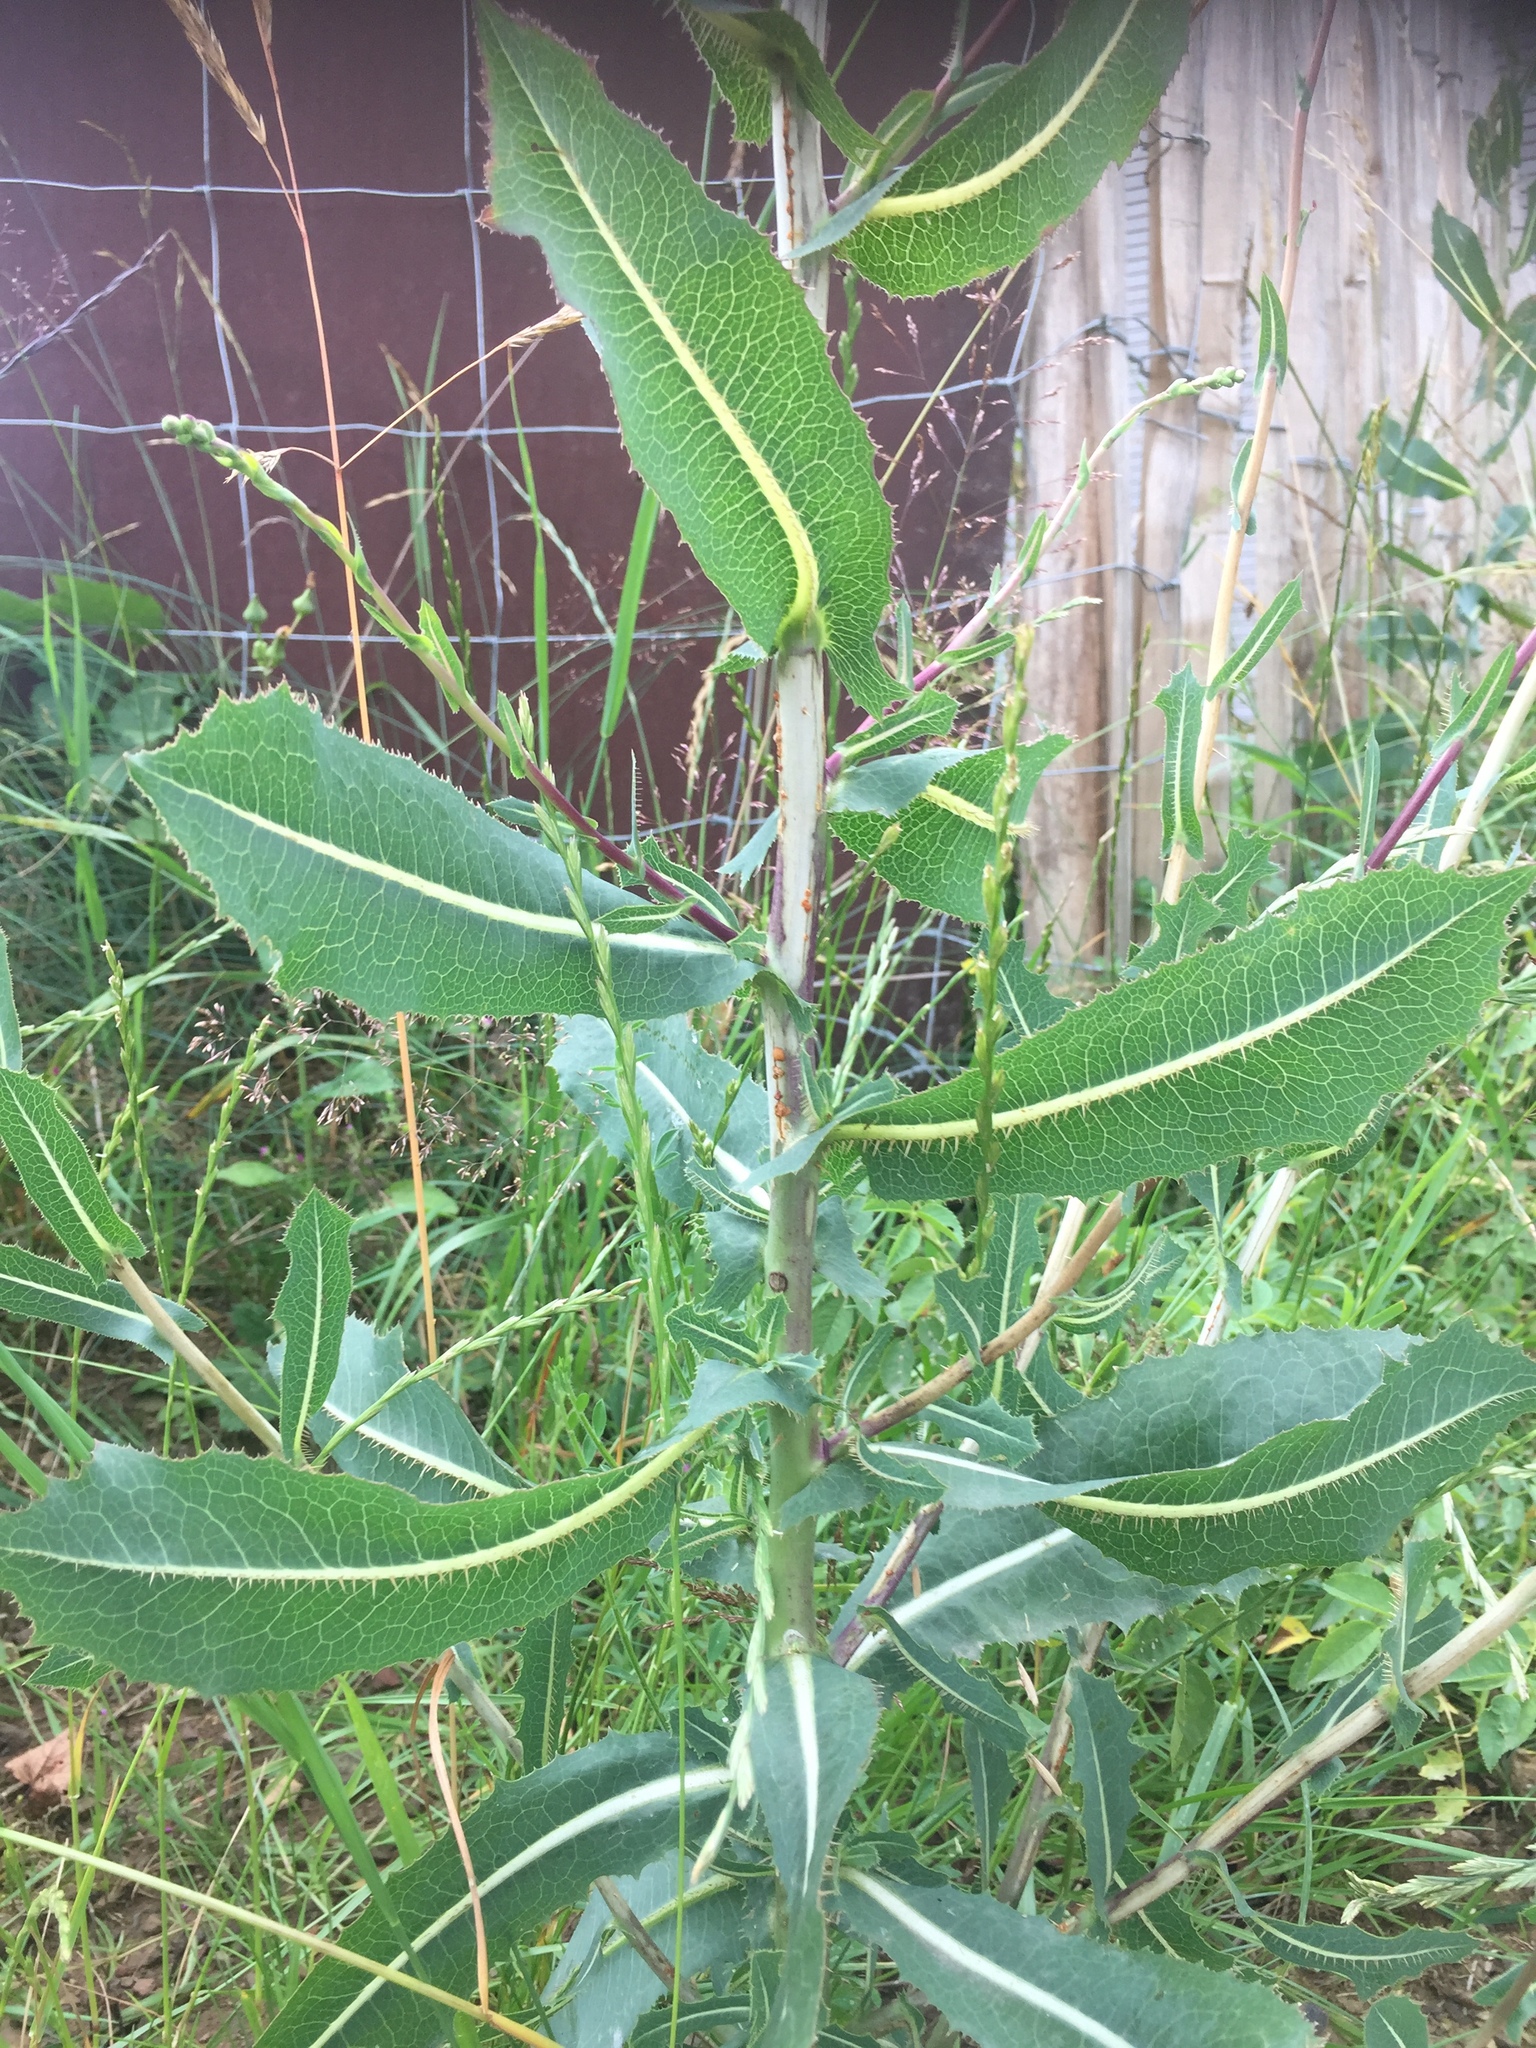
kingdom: Plantae
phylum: Tracheophyta
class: Magnoliopsida
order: Asterales
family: Asteraceae
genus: Lactuca
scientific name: Lactuca serriola
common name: Prickly lettuce
